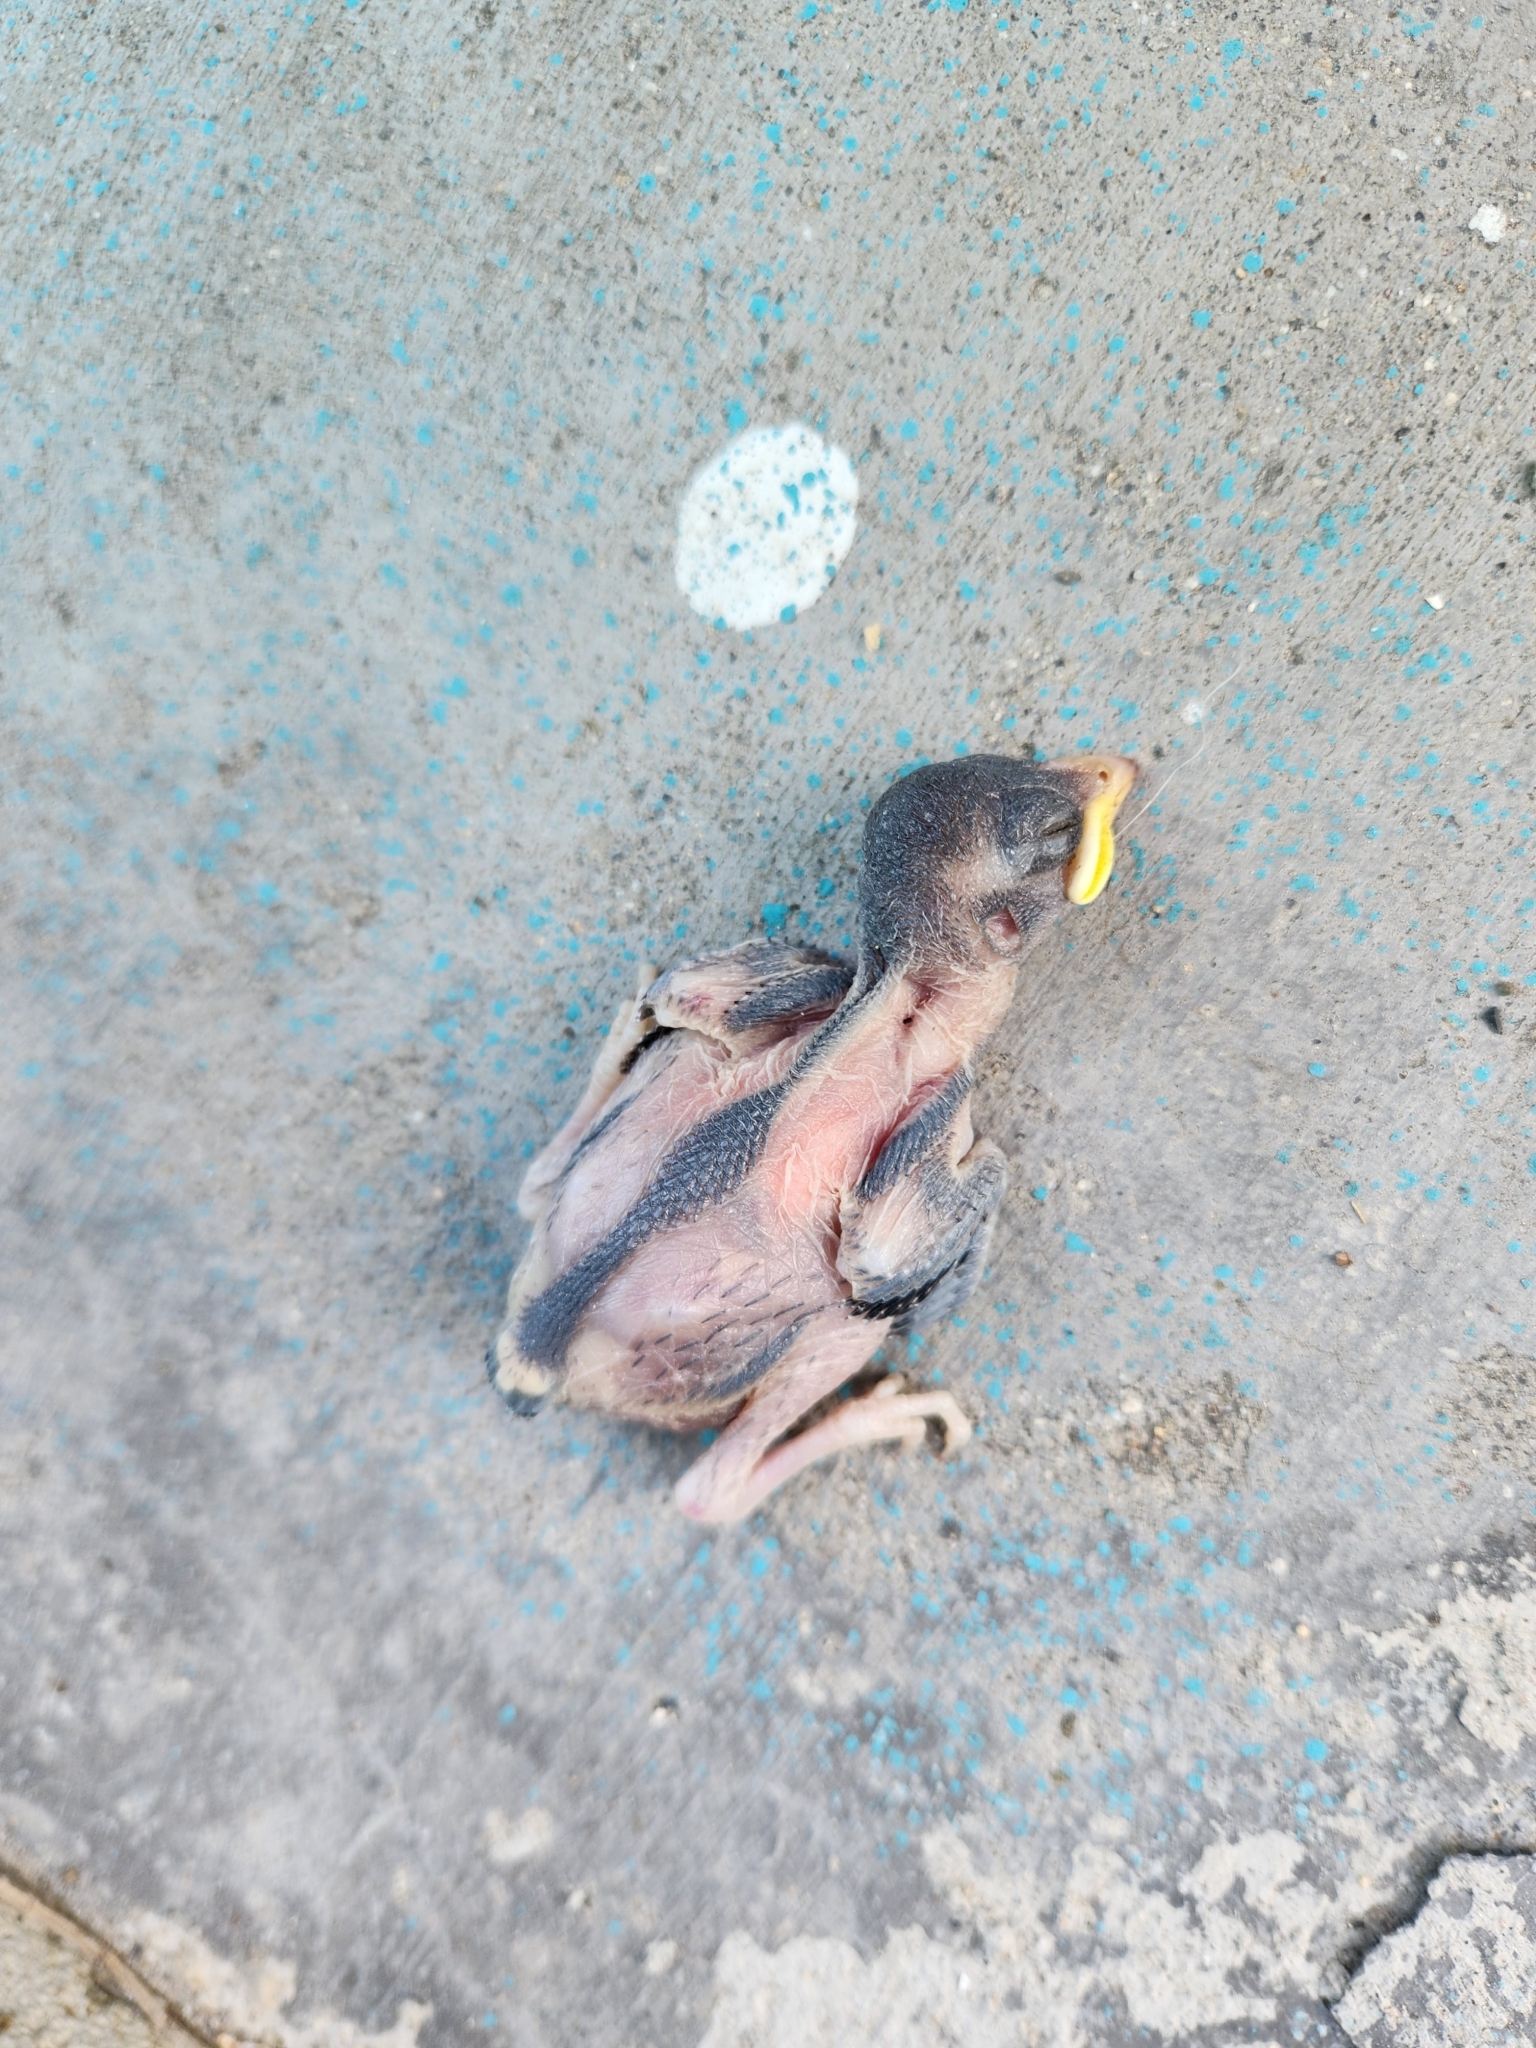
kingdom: Animalia
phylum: Chordata
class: Aves
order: Passeriformes
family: Passeridae
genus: Passer
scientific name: Passer domesticus
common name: House sparrow
